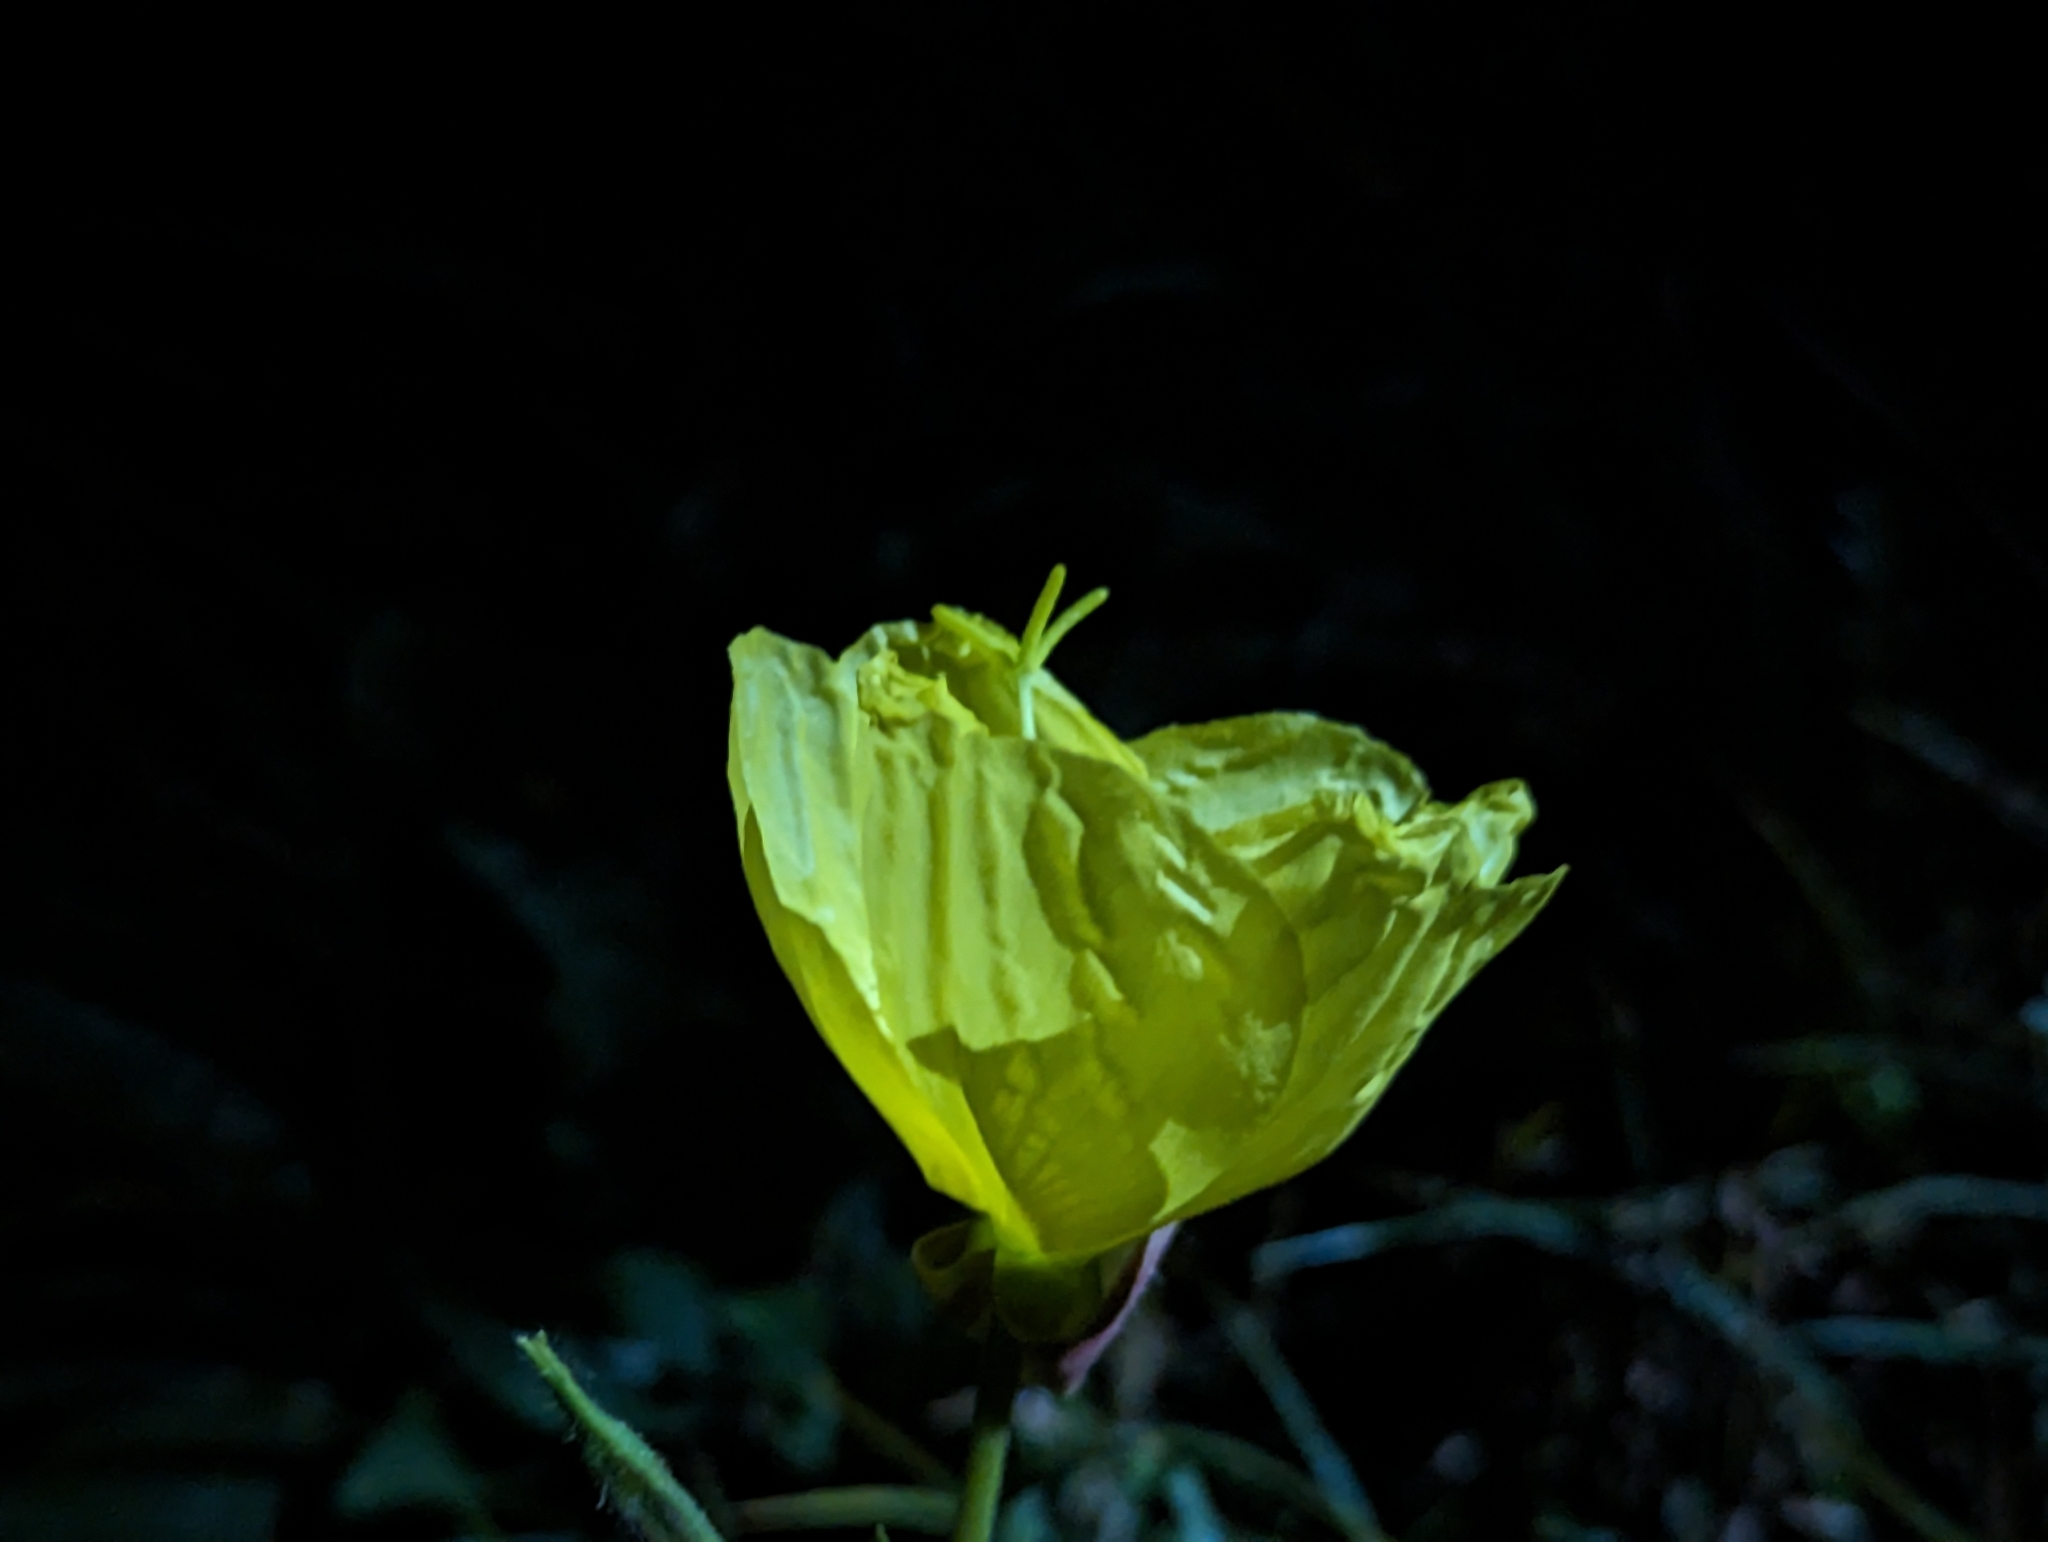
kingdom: Plantae
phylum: Tracheophyta
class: Magnoliopsida
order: Myrtales
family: Onagraceae
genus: Oenothera
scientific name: Oenothera glazioviana
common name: Large-flowered evening-primrose
